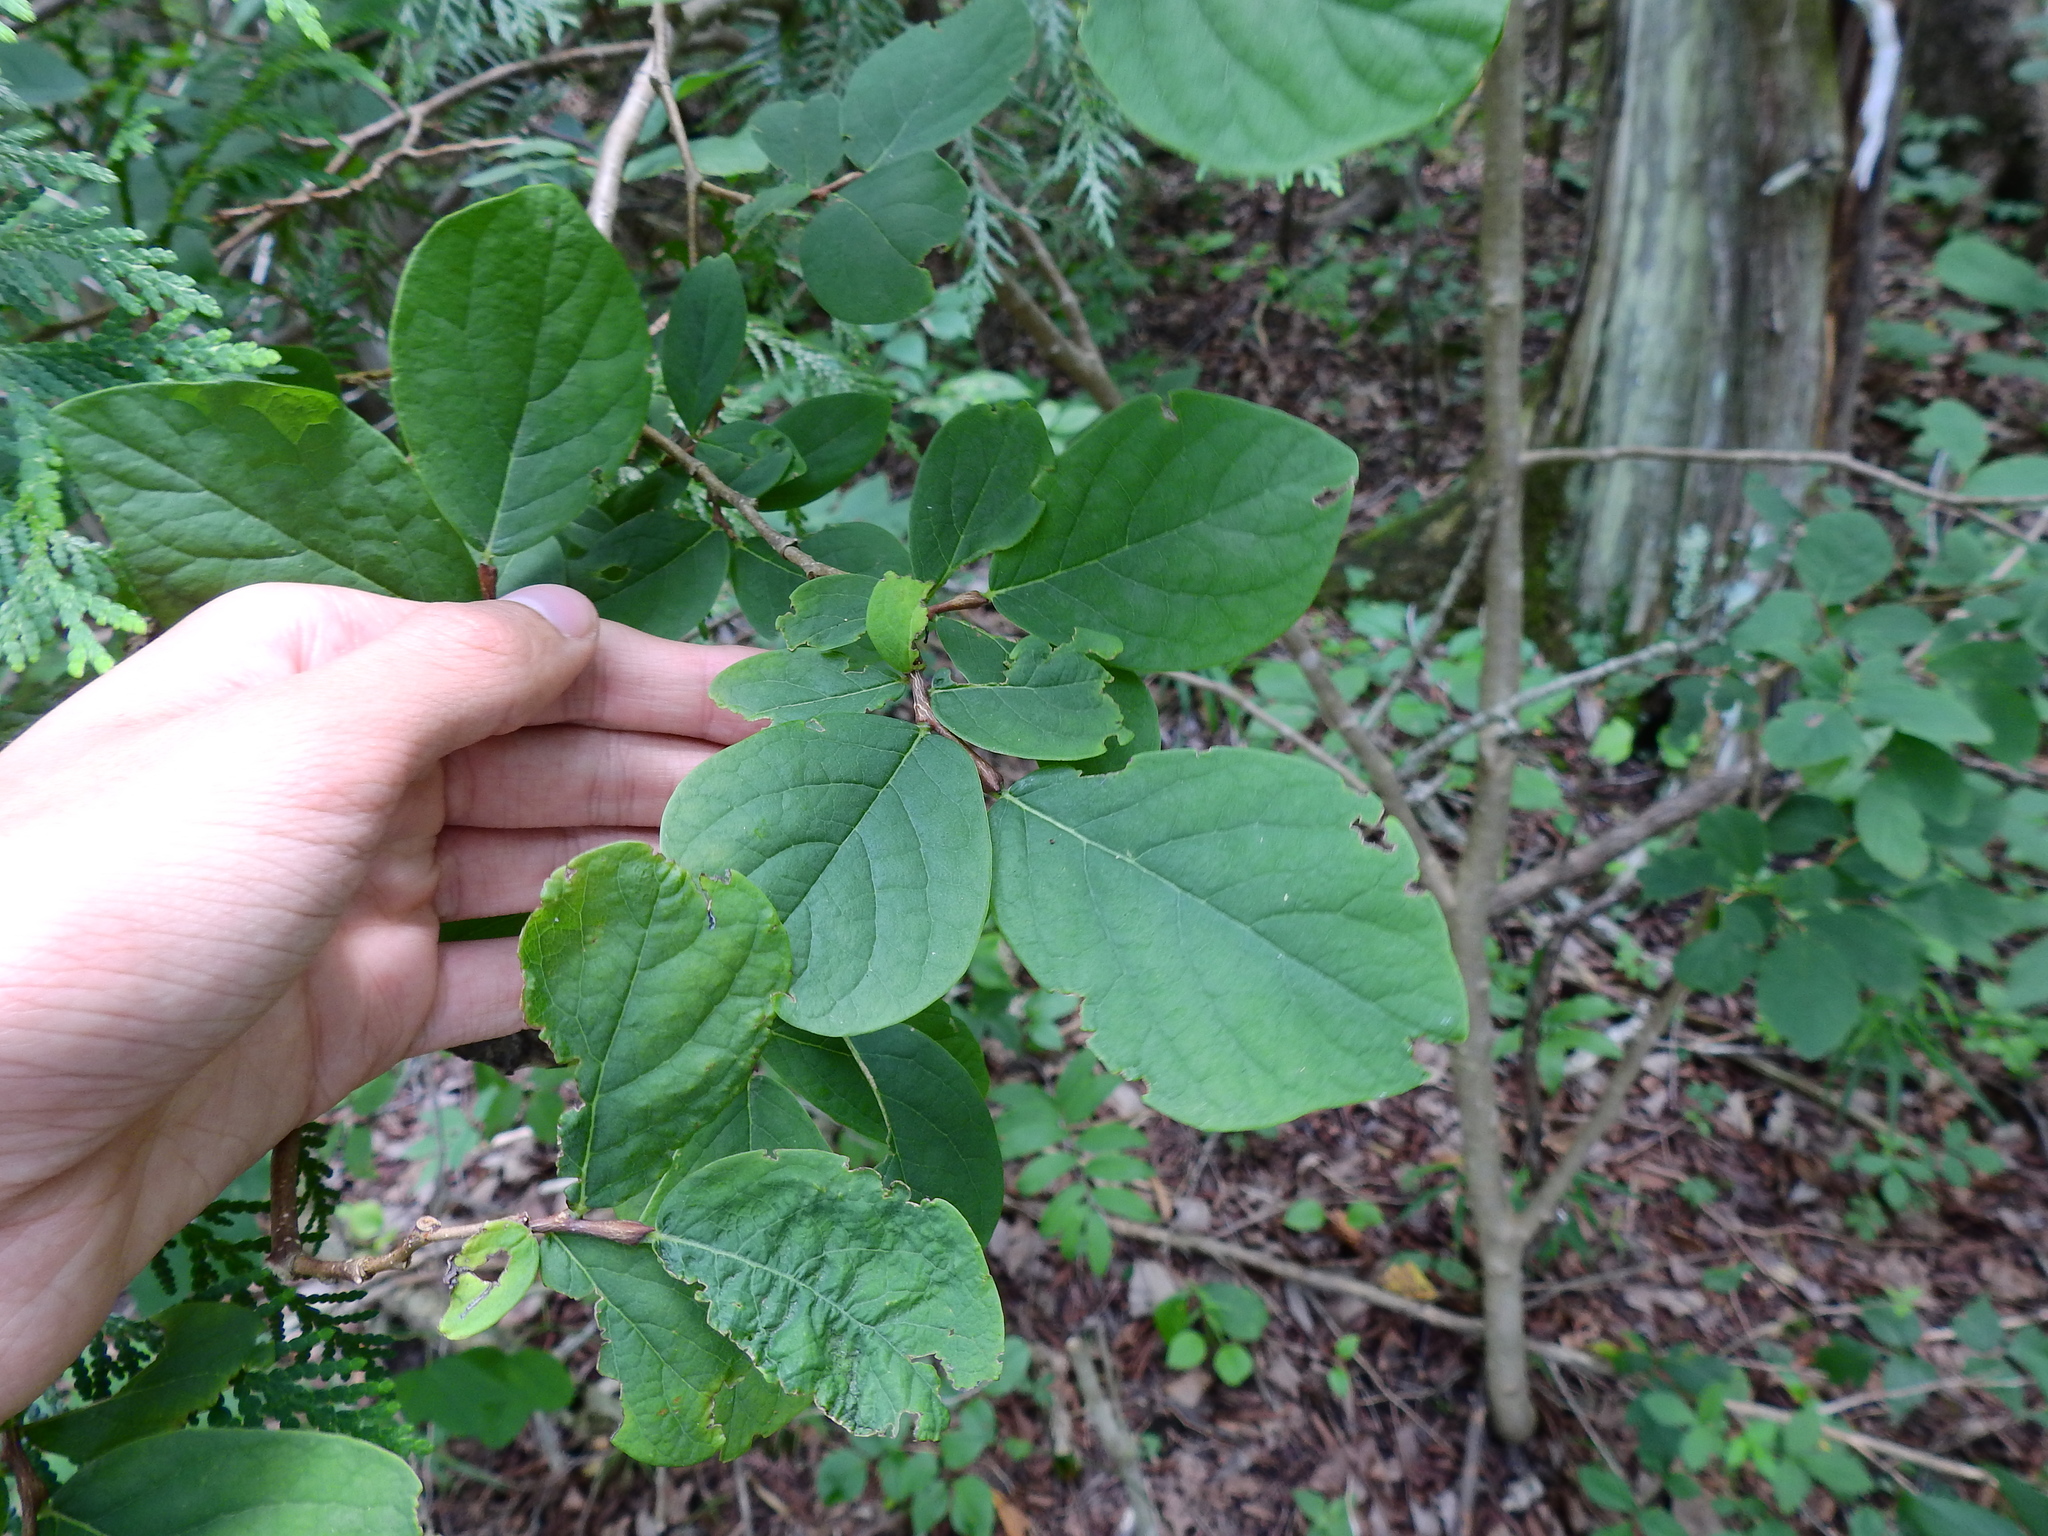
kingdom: Plantae
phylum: Tracheophyta
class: Magnoliopsida
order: Malvales
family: Thymelaeaceae
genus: Dirca
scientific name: Dirca palustris
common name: Leatherwood
